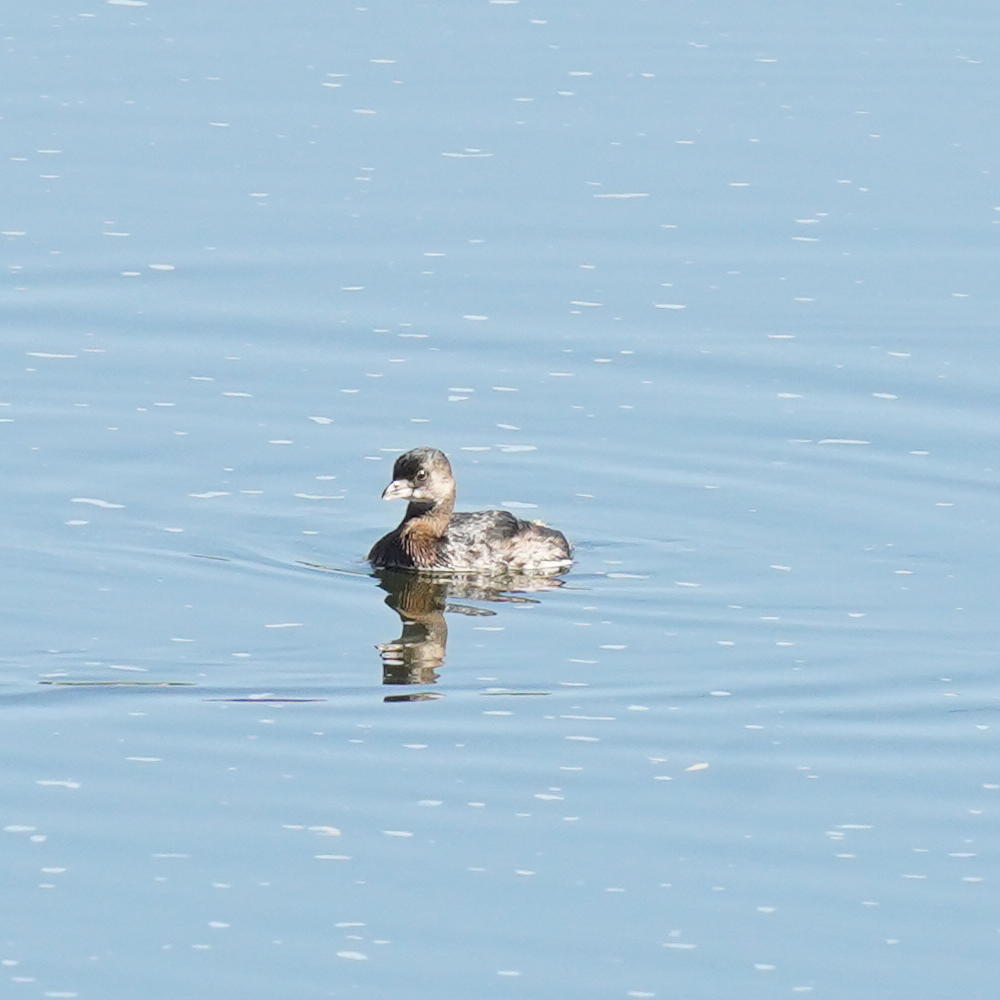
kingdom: Animalia
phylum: Chordata
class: Aves
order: Podicipediformes
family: Podicipedidae
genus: Podilymbus
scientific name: Podilymbus podiceps
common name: Pied-billed grebe
